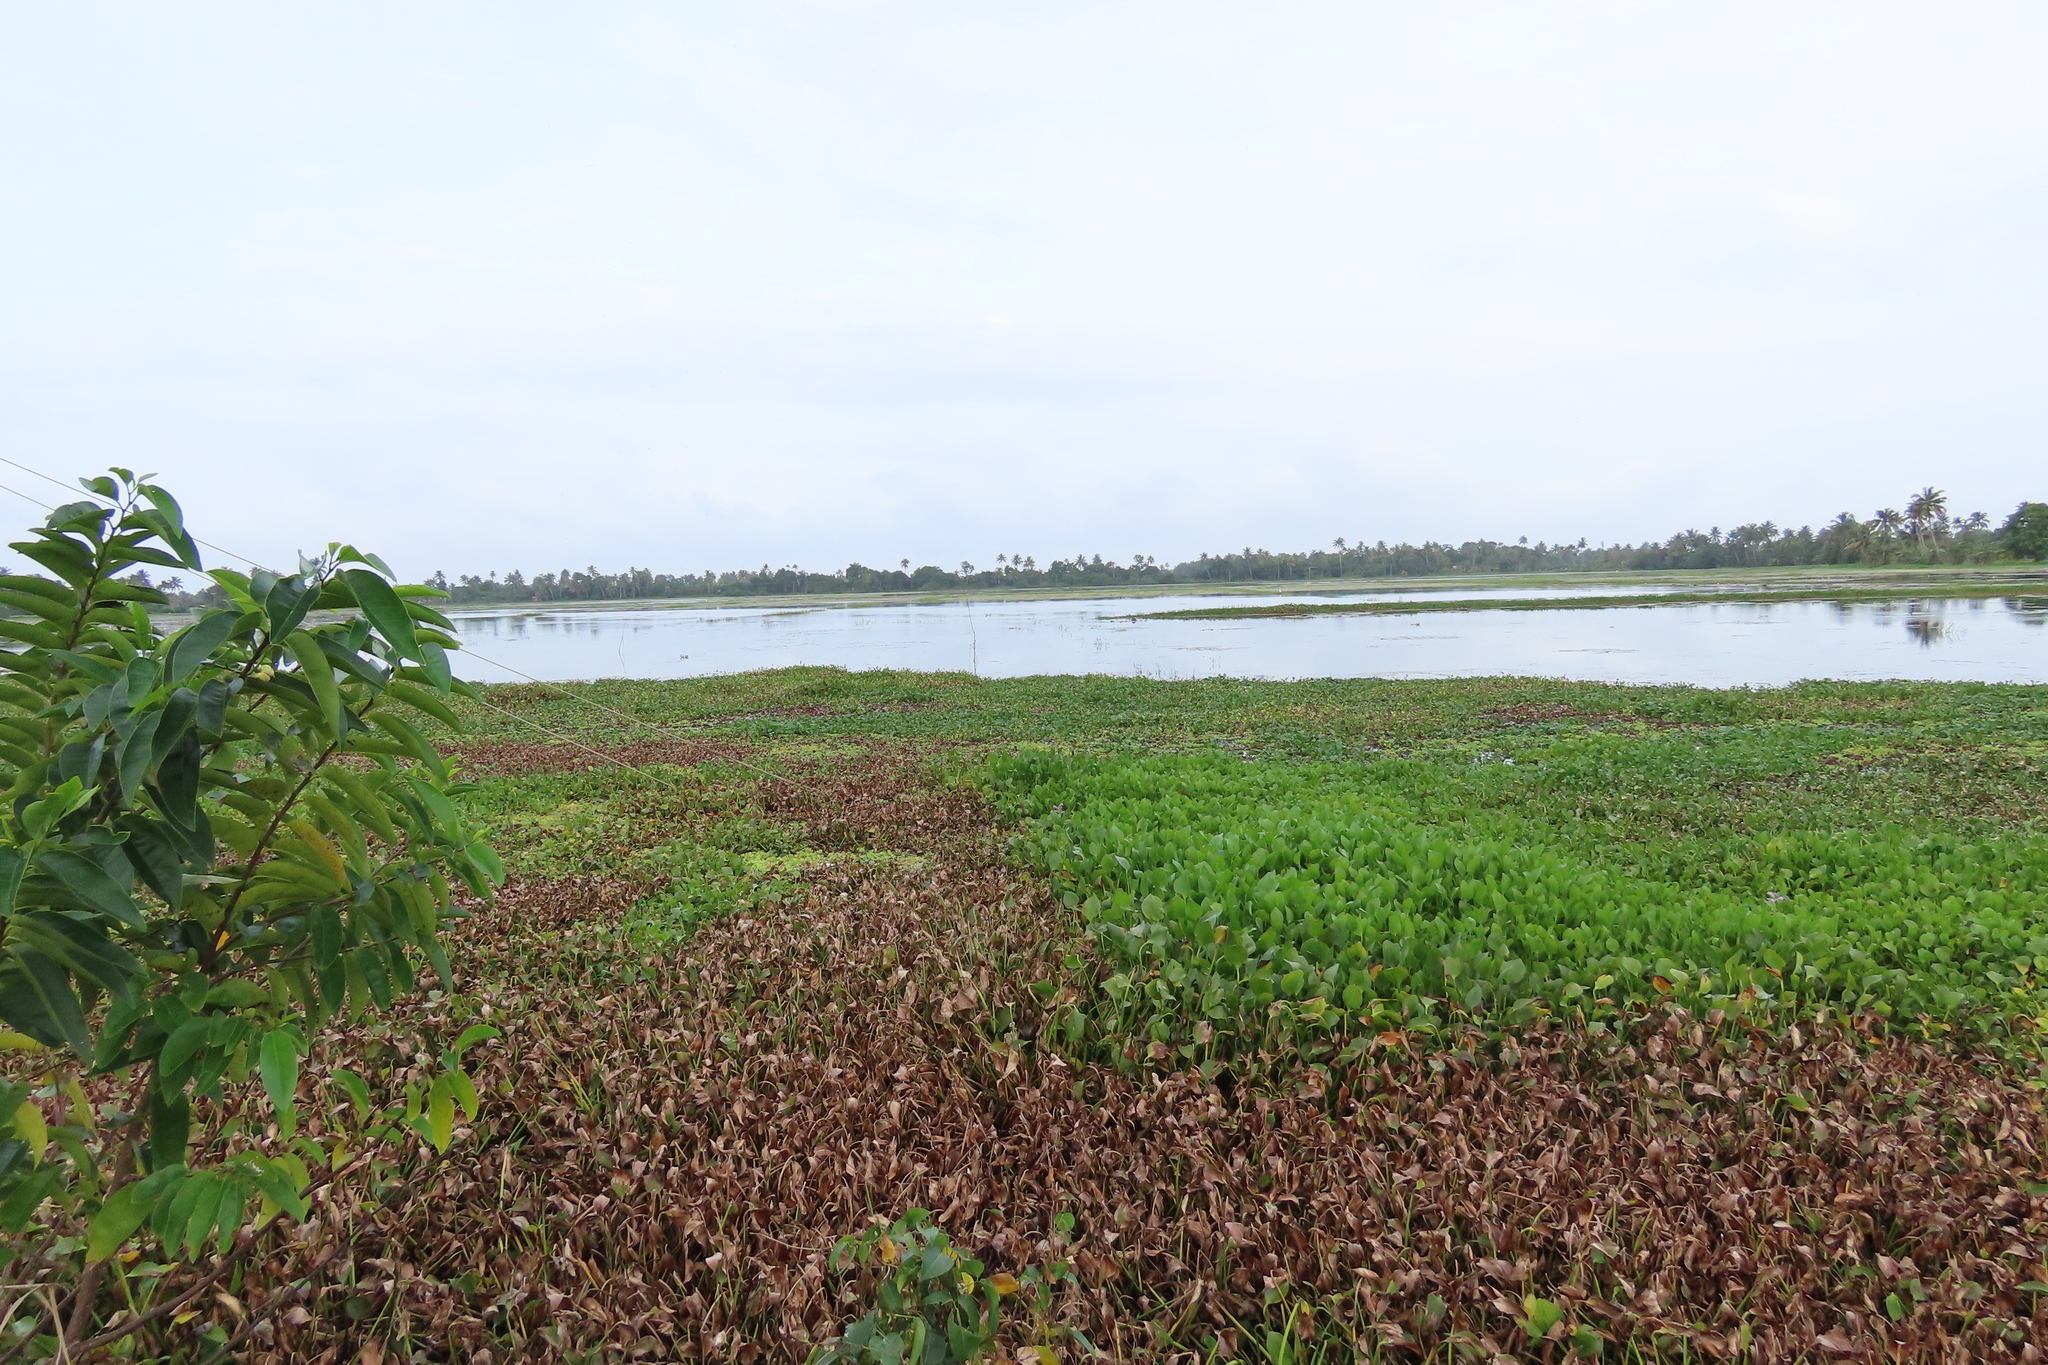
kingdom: Plantae
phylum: Tracheophyta
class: Liliopsida
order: Commelinales
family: Pontederiaceae
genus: Pontederia
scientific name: Pontederia crassipes
